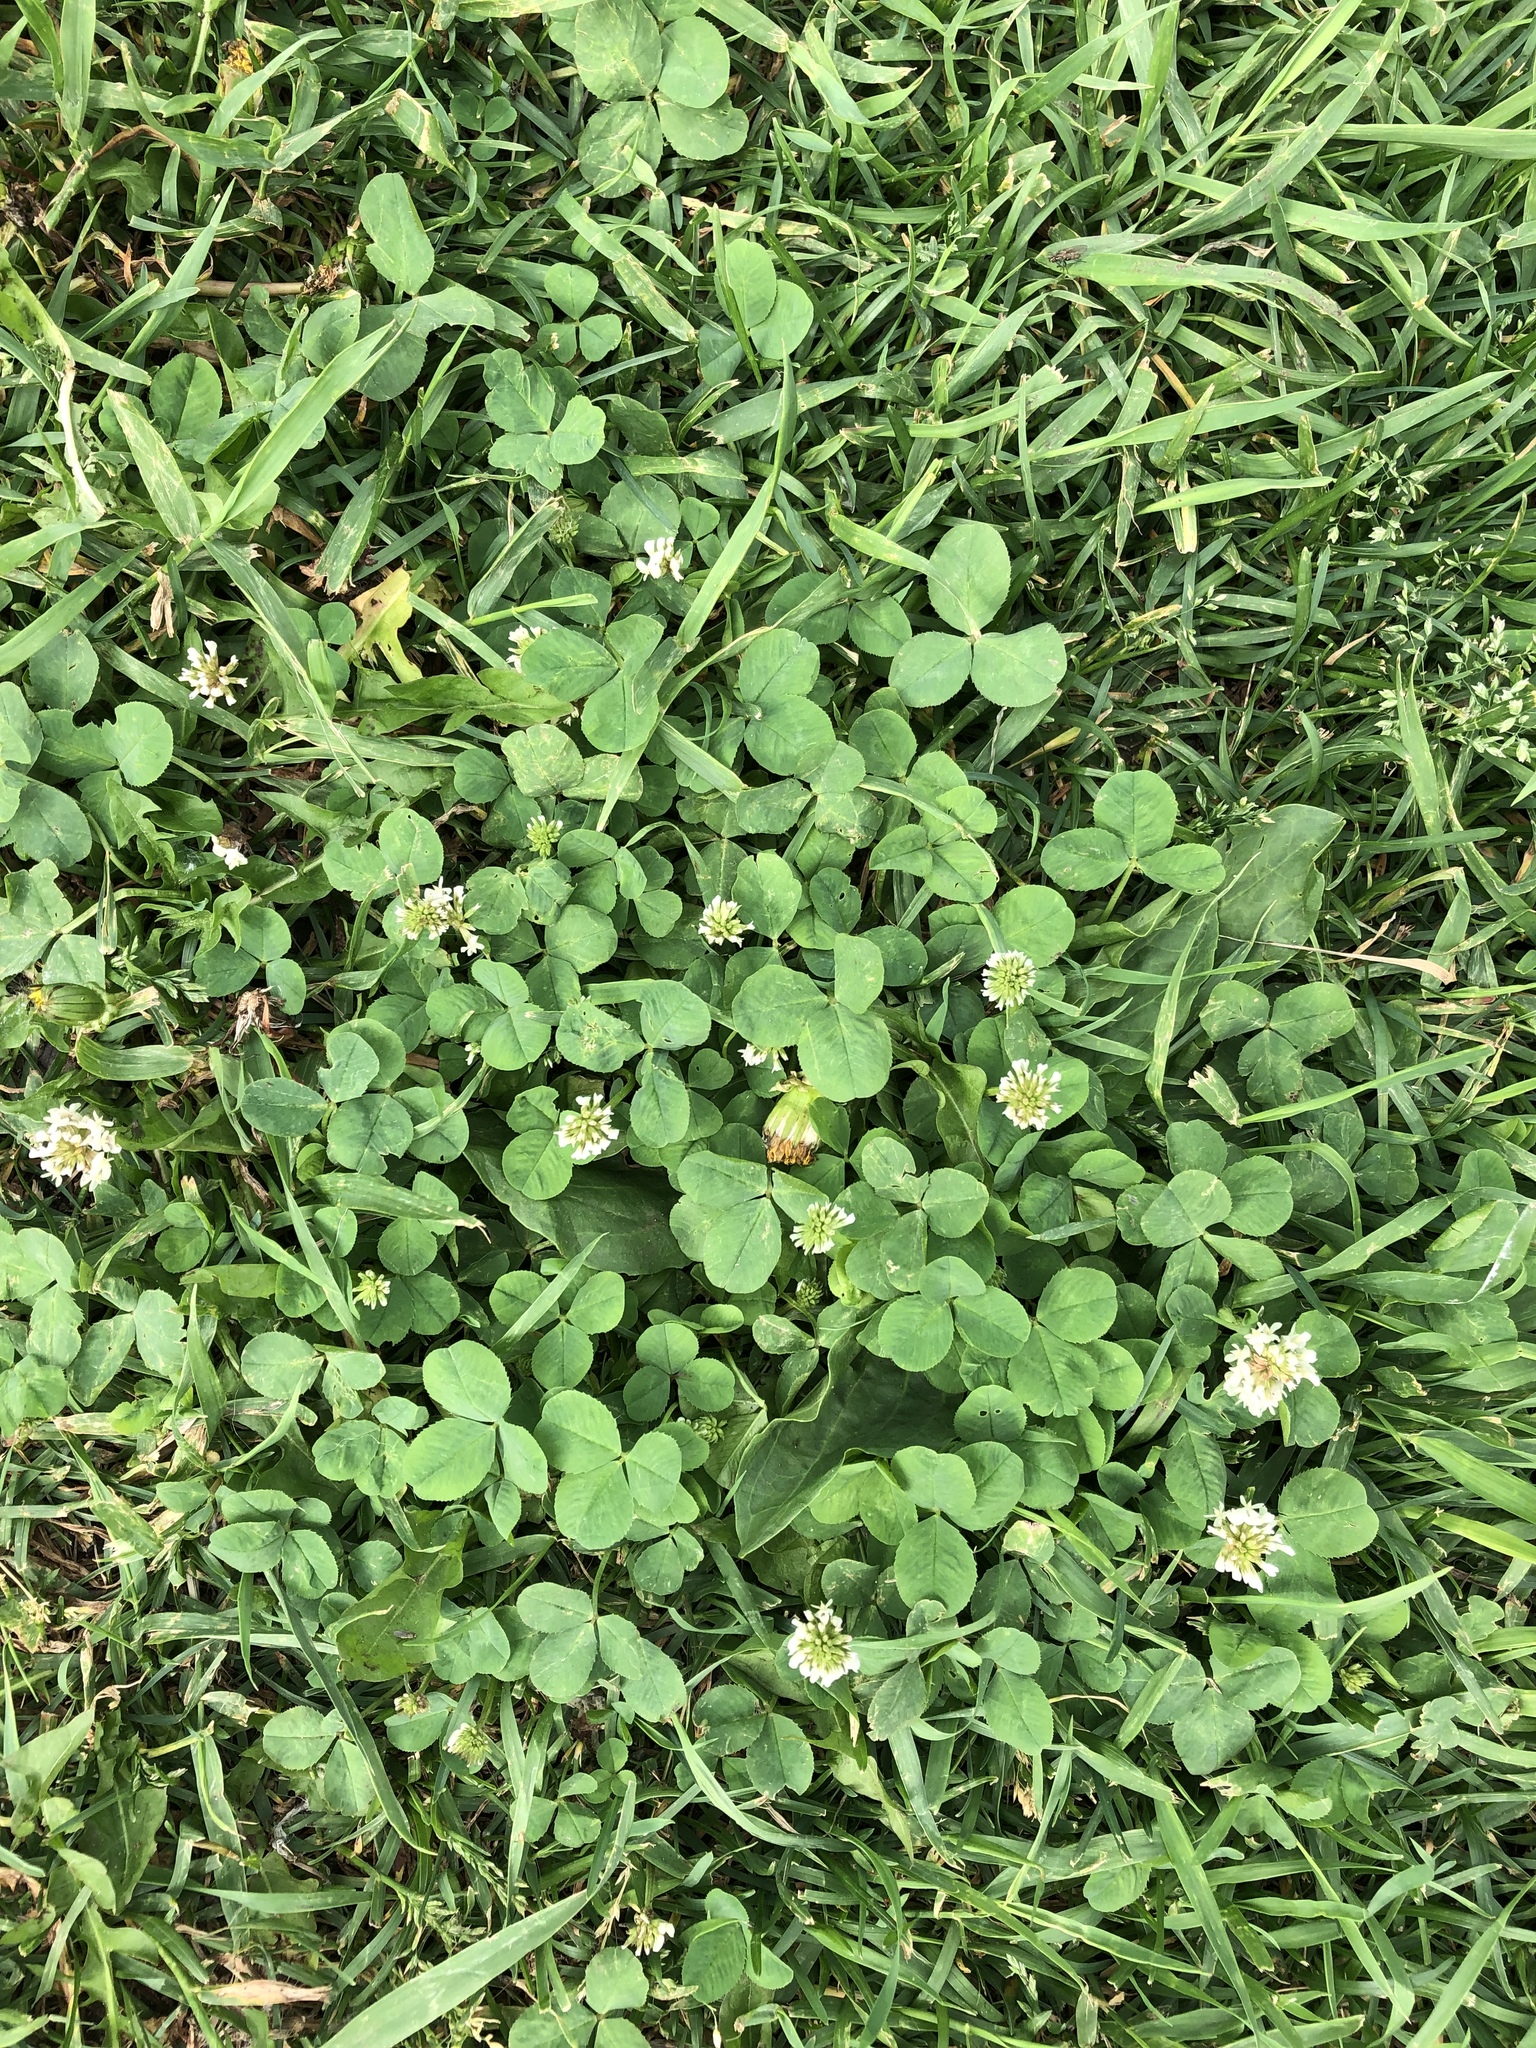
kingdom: Plantae
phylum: Tracheophyta
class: Magnoliopsida
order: Fabales
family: Fabaceae
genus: Trifolium
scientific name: Trifolium repens
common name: White clover
